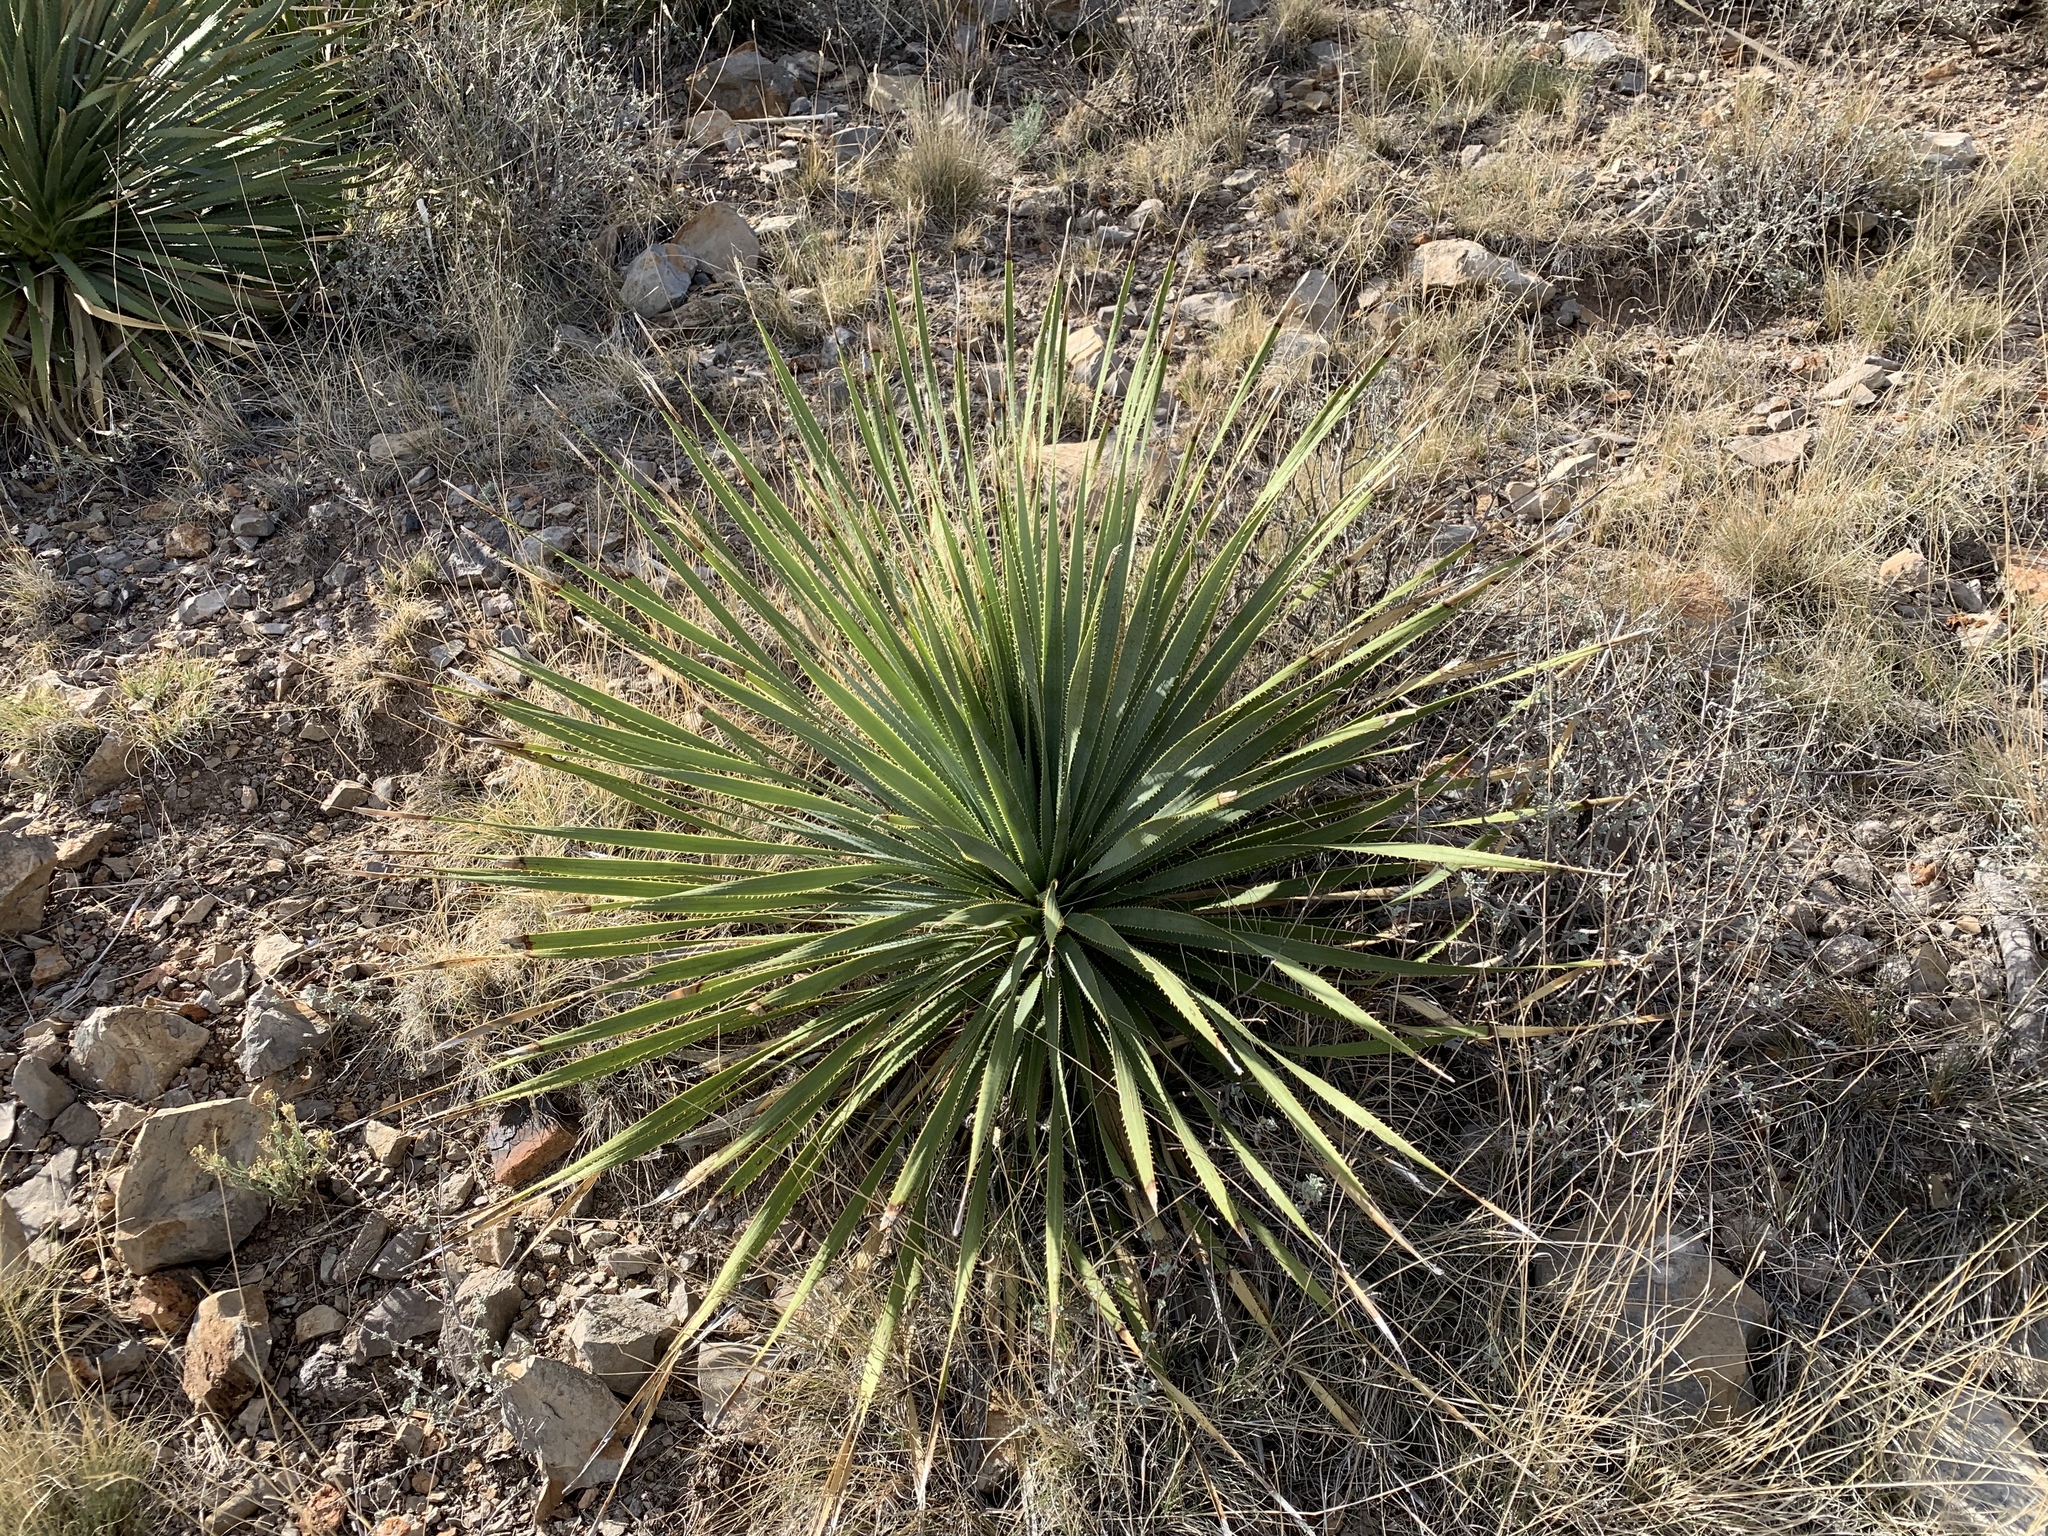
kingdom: Plantae
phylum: Tracheophyta
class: Liliopsida
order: Asparagales
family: Asparagaceae
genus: Dasylirion
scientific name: Dasylirion wheeleri
